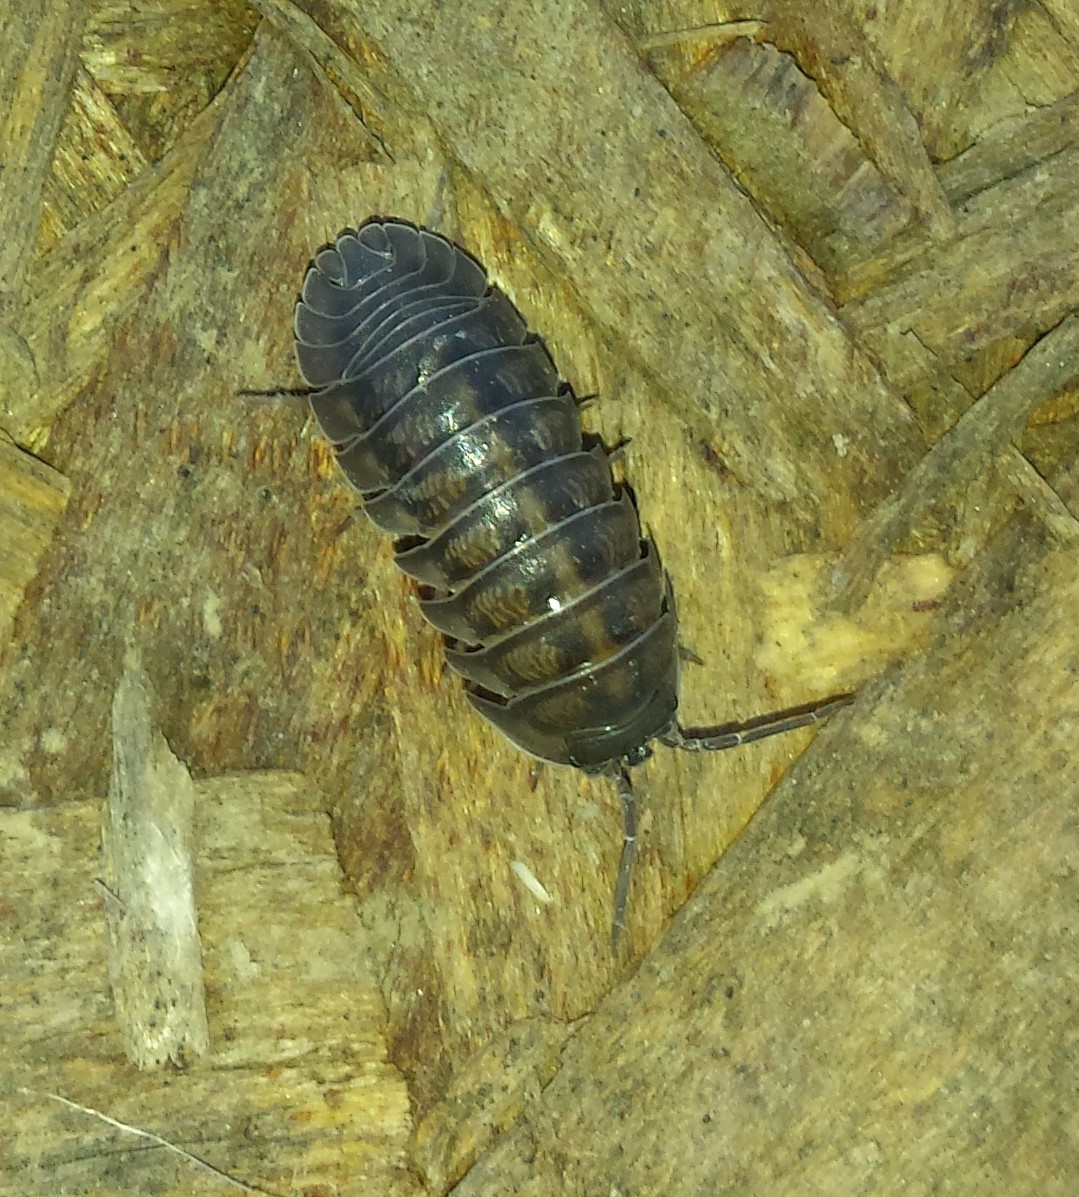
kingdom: Animalia
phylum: Arthropoda
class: Malacostraca
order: Isopoda
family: Armadillidiidae
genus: Armadillidium
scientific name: Armadillidium nasatum
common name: Isopod
